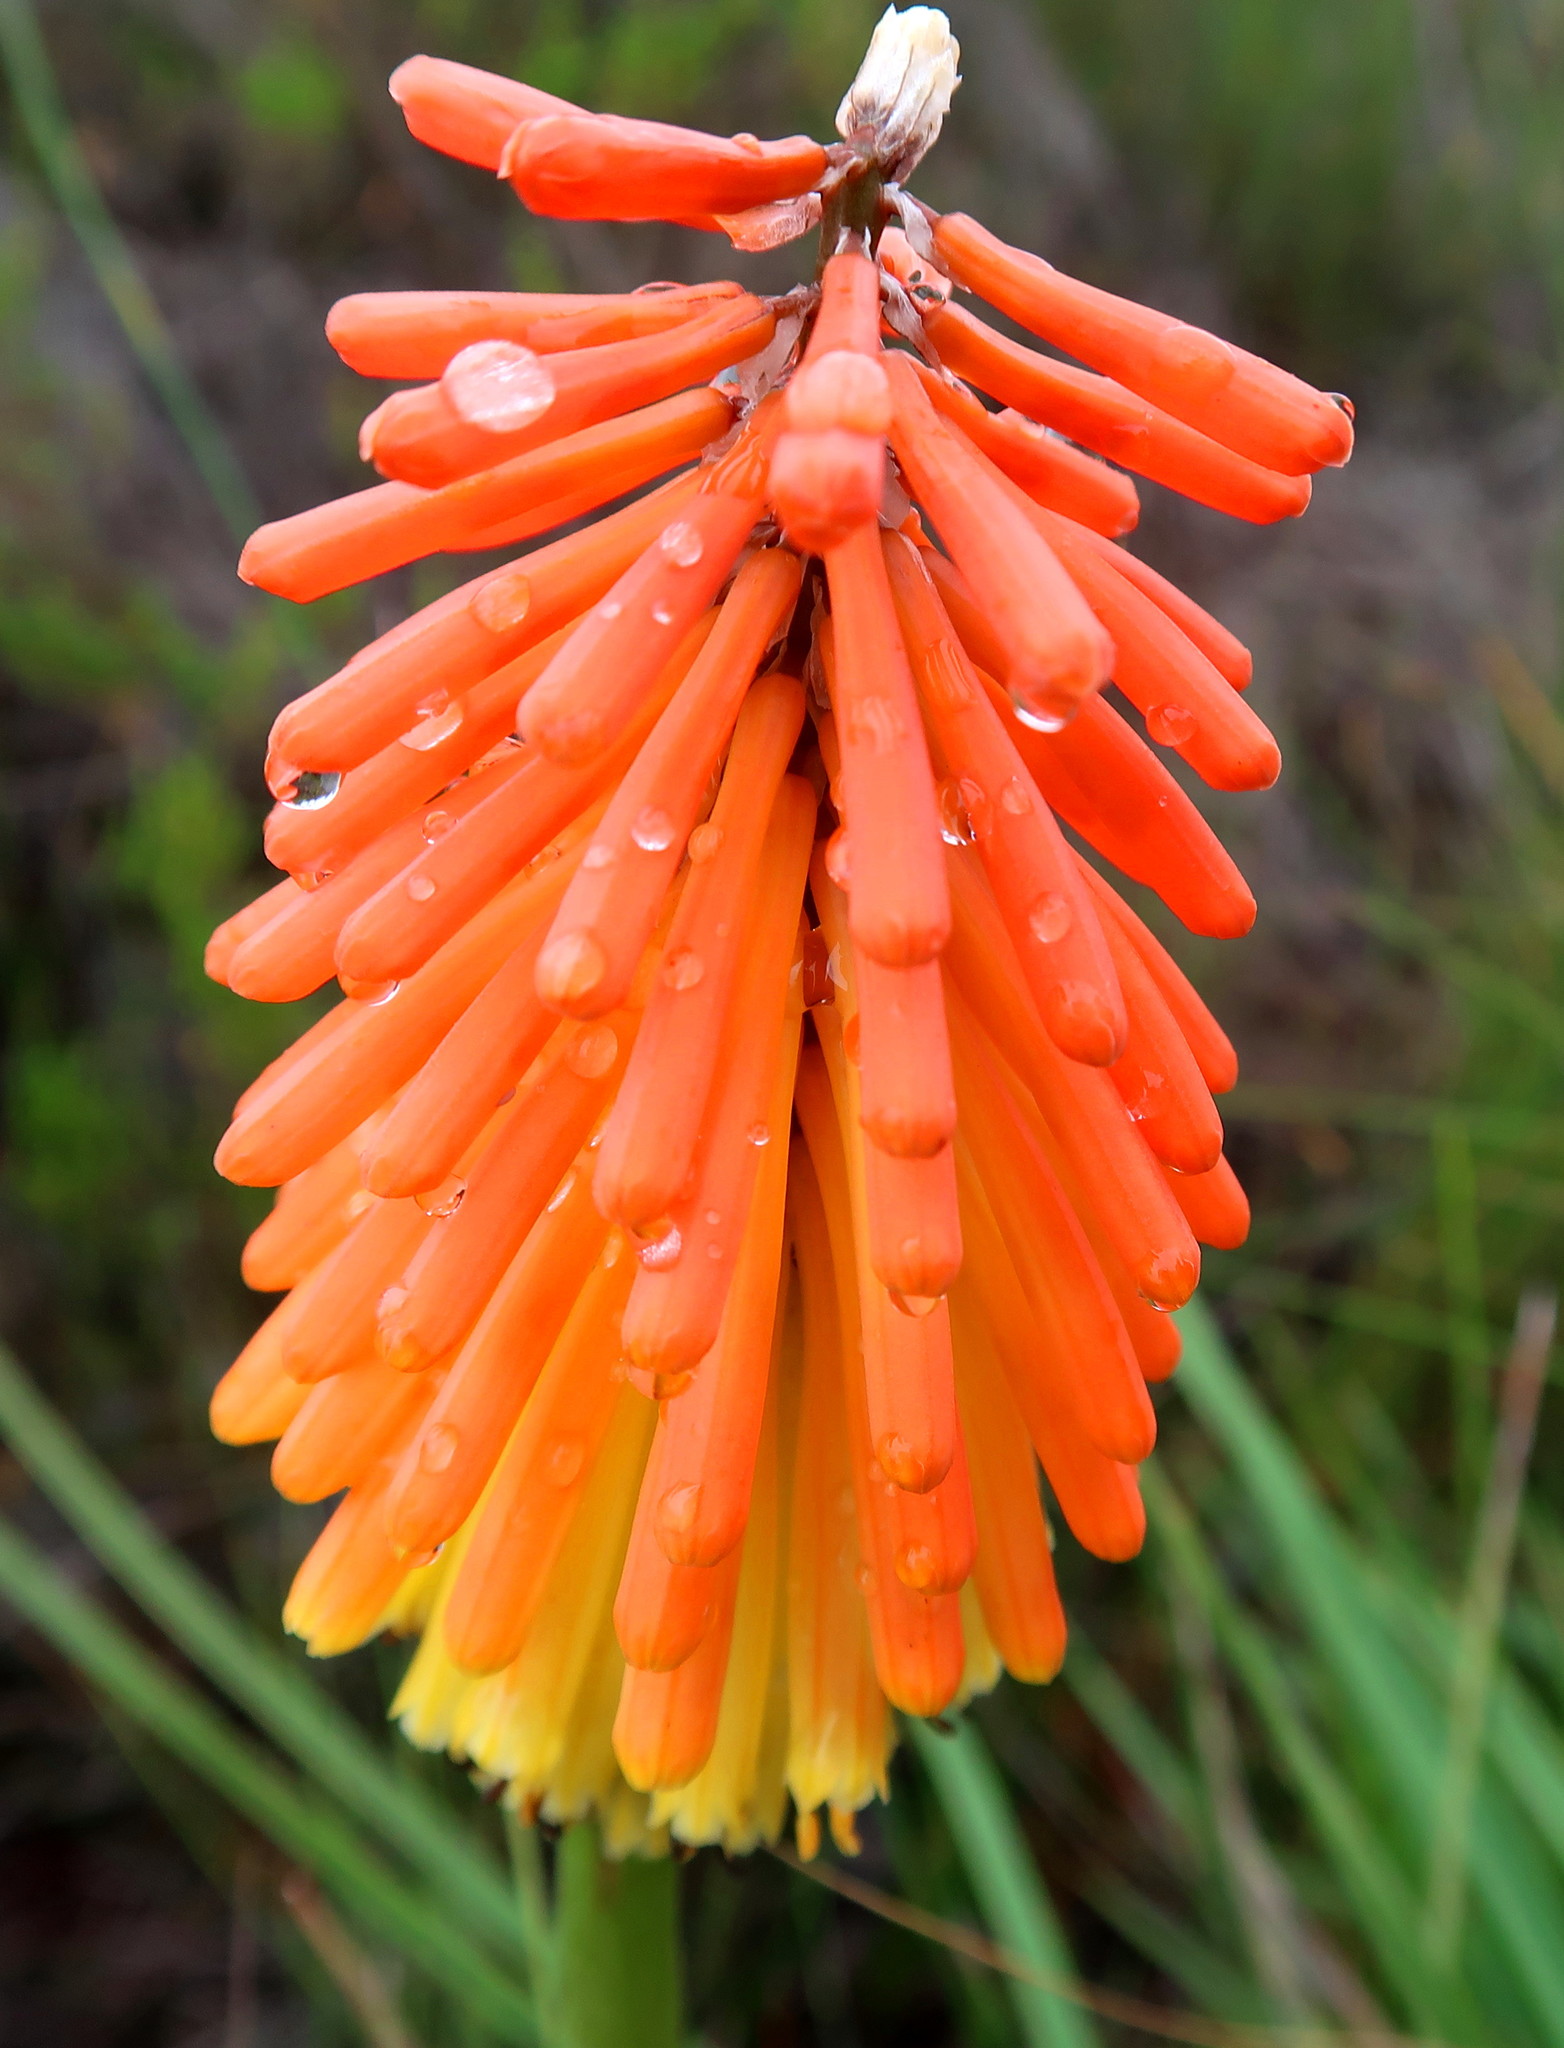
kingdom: Plantae
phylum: Tracheophyta
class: Liliopsida
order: Asparagales
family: Asphodelaceae
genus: Kniphofia
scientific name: Kniphofia uvaria
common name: Red-hot-poker
